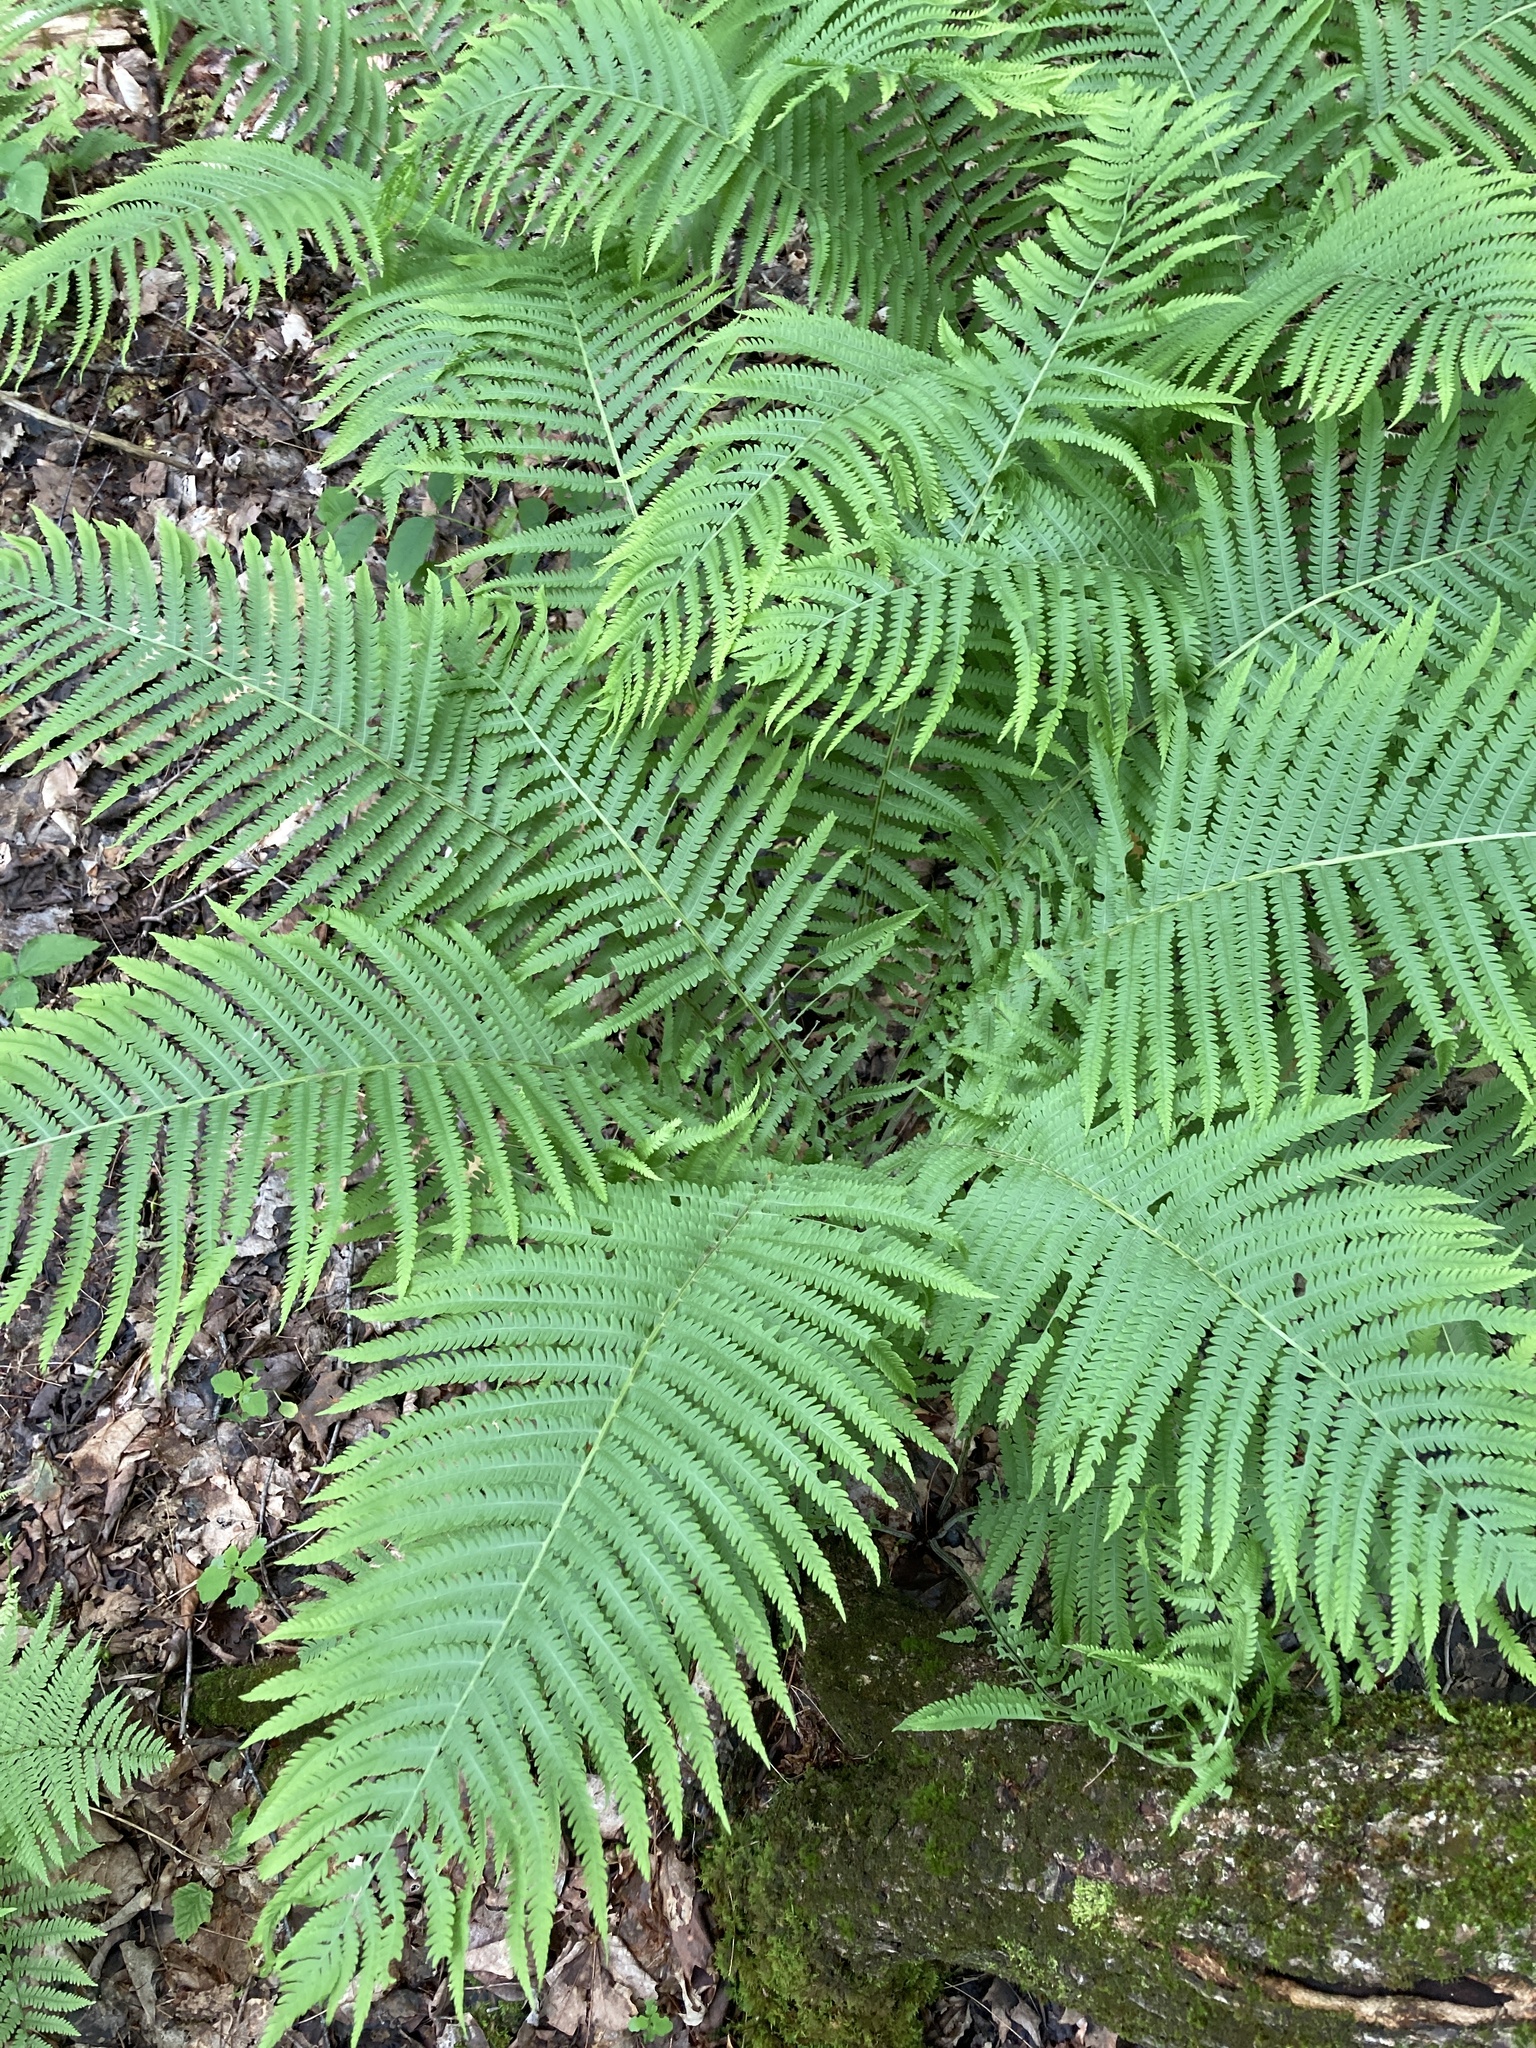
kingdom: Plantae
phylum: Tracheophyta
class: Polypodiopsida
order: Polypodiales
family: Onocleaceae
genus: Matteuccia
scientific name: Matteuccia struthiopteris
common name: Ostrich fern
